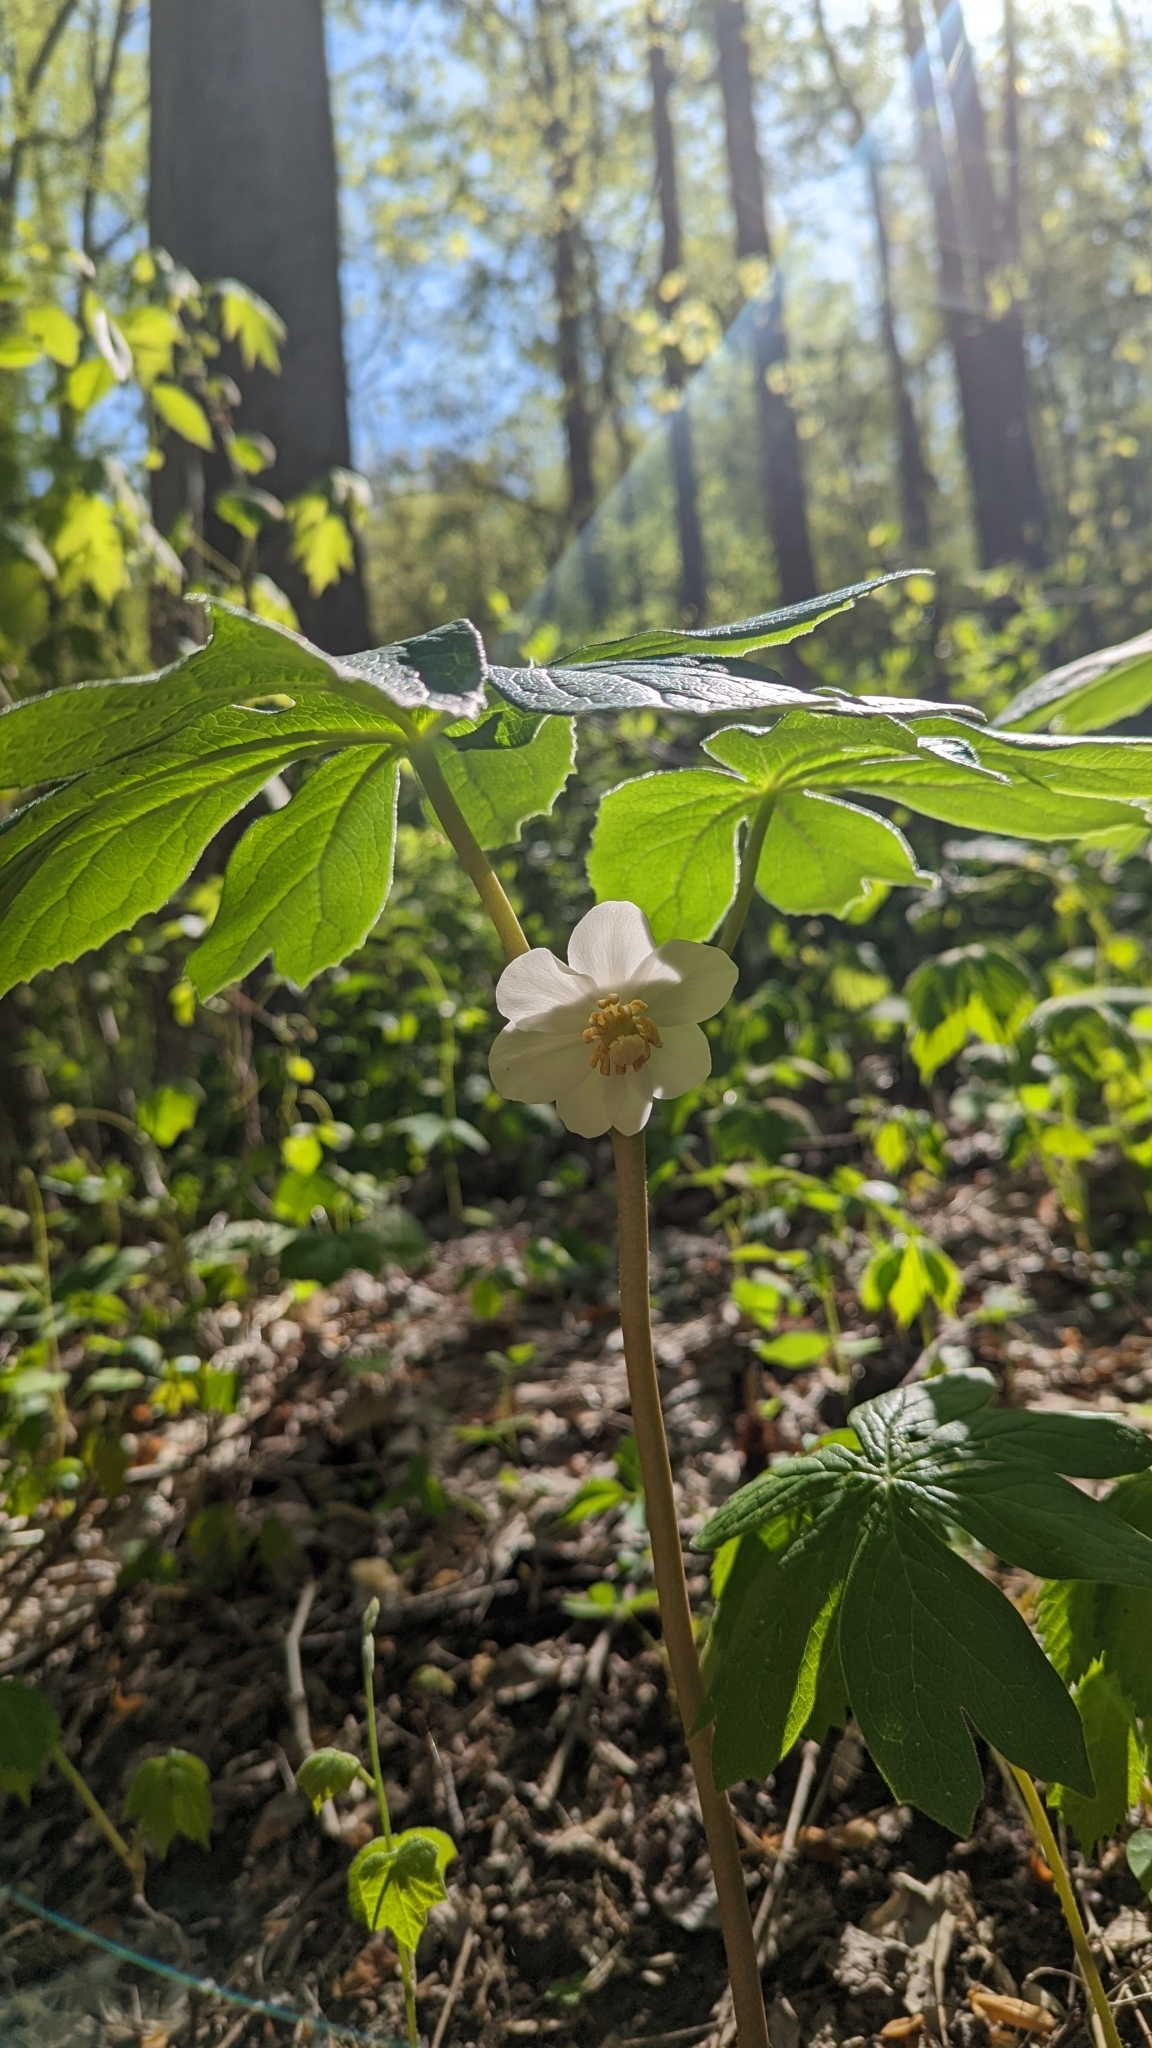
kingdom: Plantae
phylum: Tracheophyta
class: Magnoliopsida
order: Ranunculales
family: Berberidaceae
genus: Podophyllum
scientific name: Podophyllum peltatum
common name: Wild mandrake
